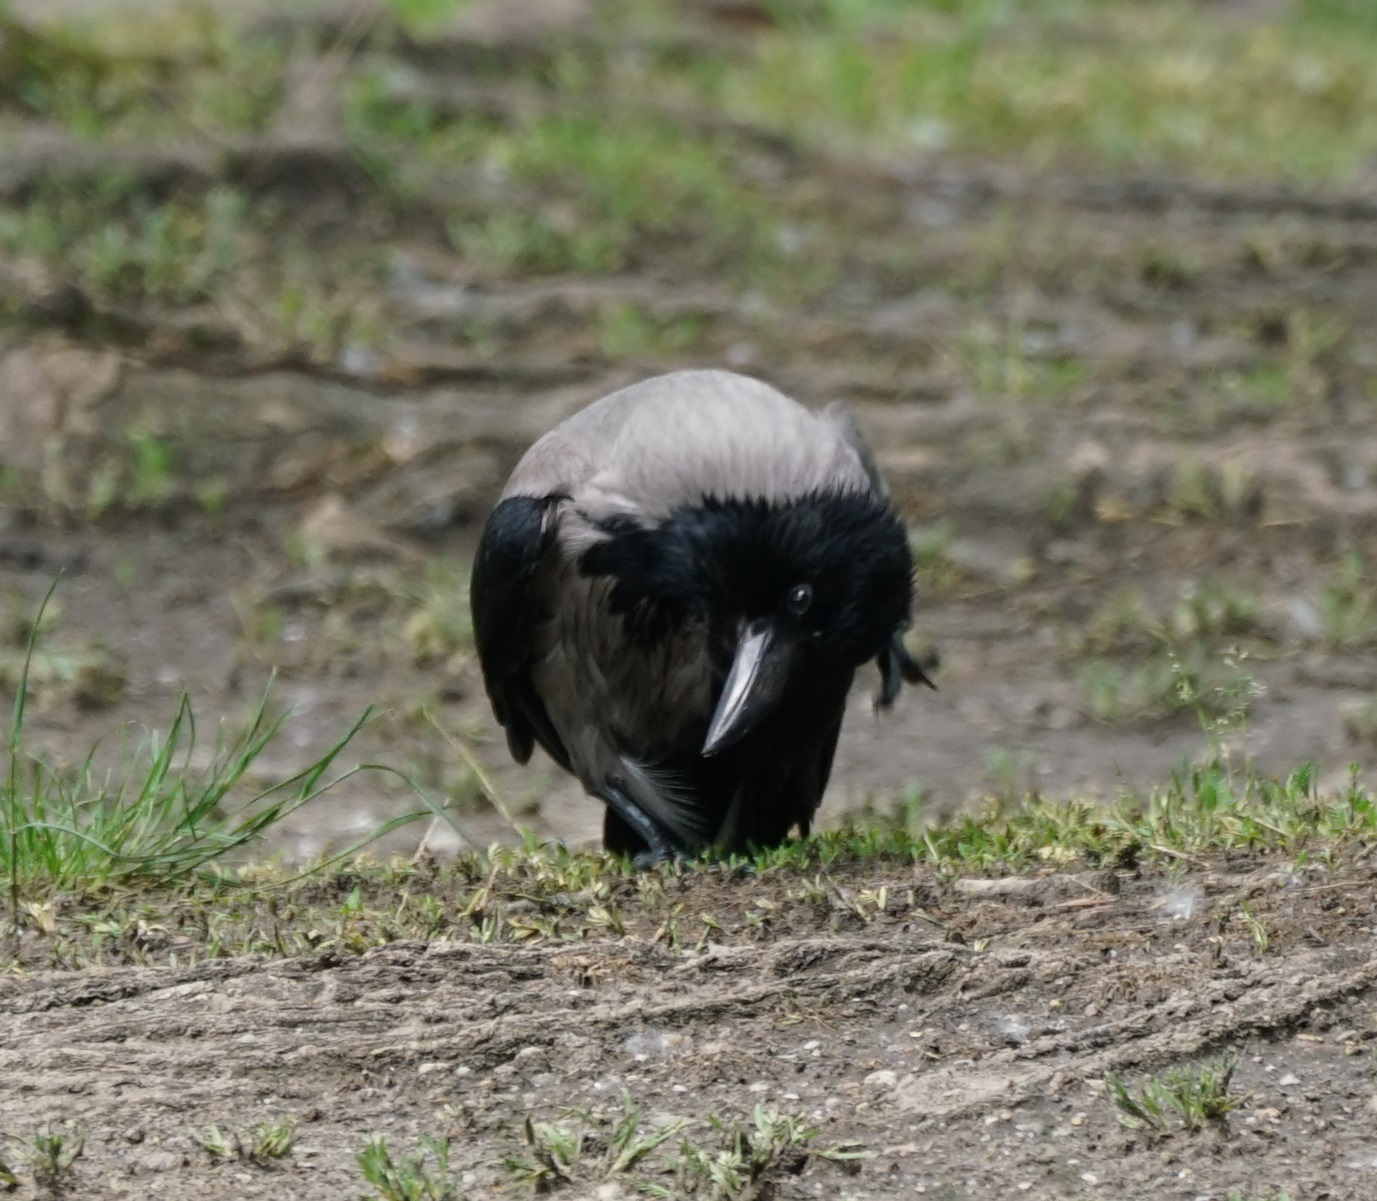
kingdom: Animalia
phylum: Chordata
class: Aves
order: Passeriformes
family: Corvidae
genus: Corvus
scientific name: Corvus cornix
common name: Hooded crow
